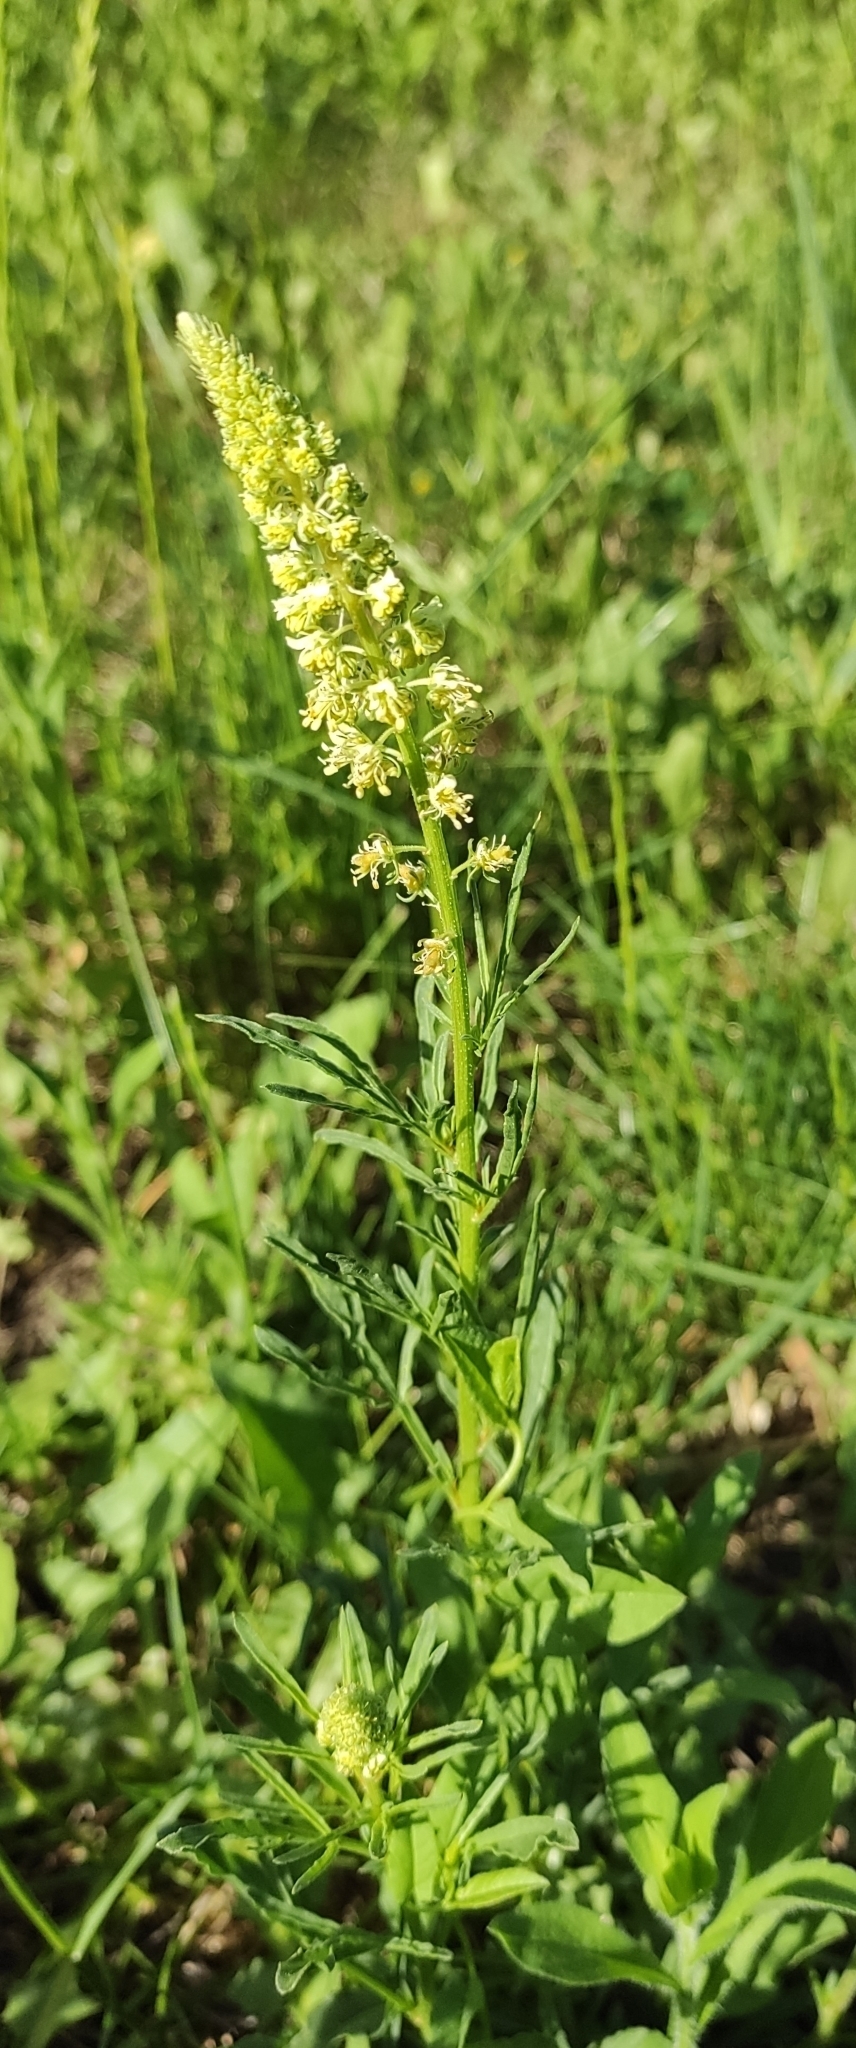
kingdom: Plantae
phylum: Tracheophyta
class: Magnoliopsida
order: Brassicales
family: Resedaceae
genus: Reseda
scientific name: Reseda lutea
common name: Wild mignonette
